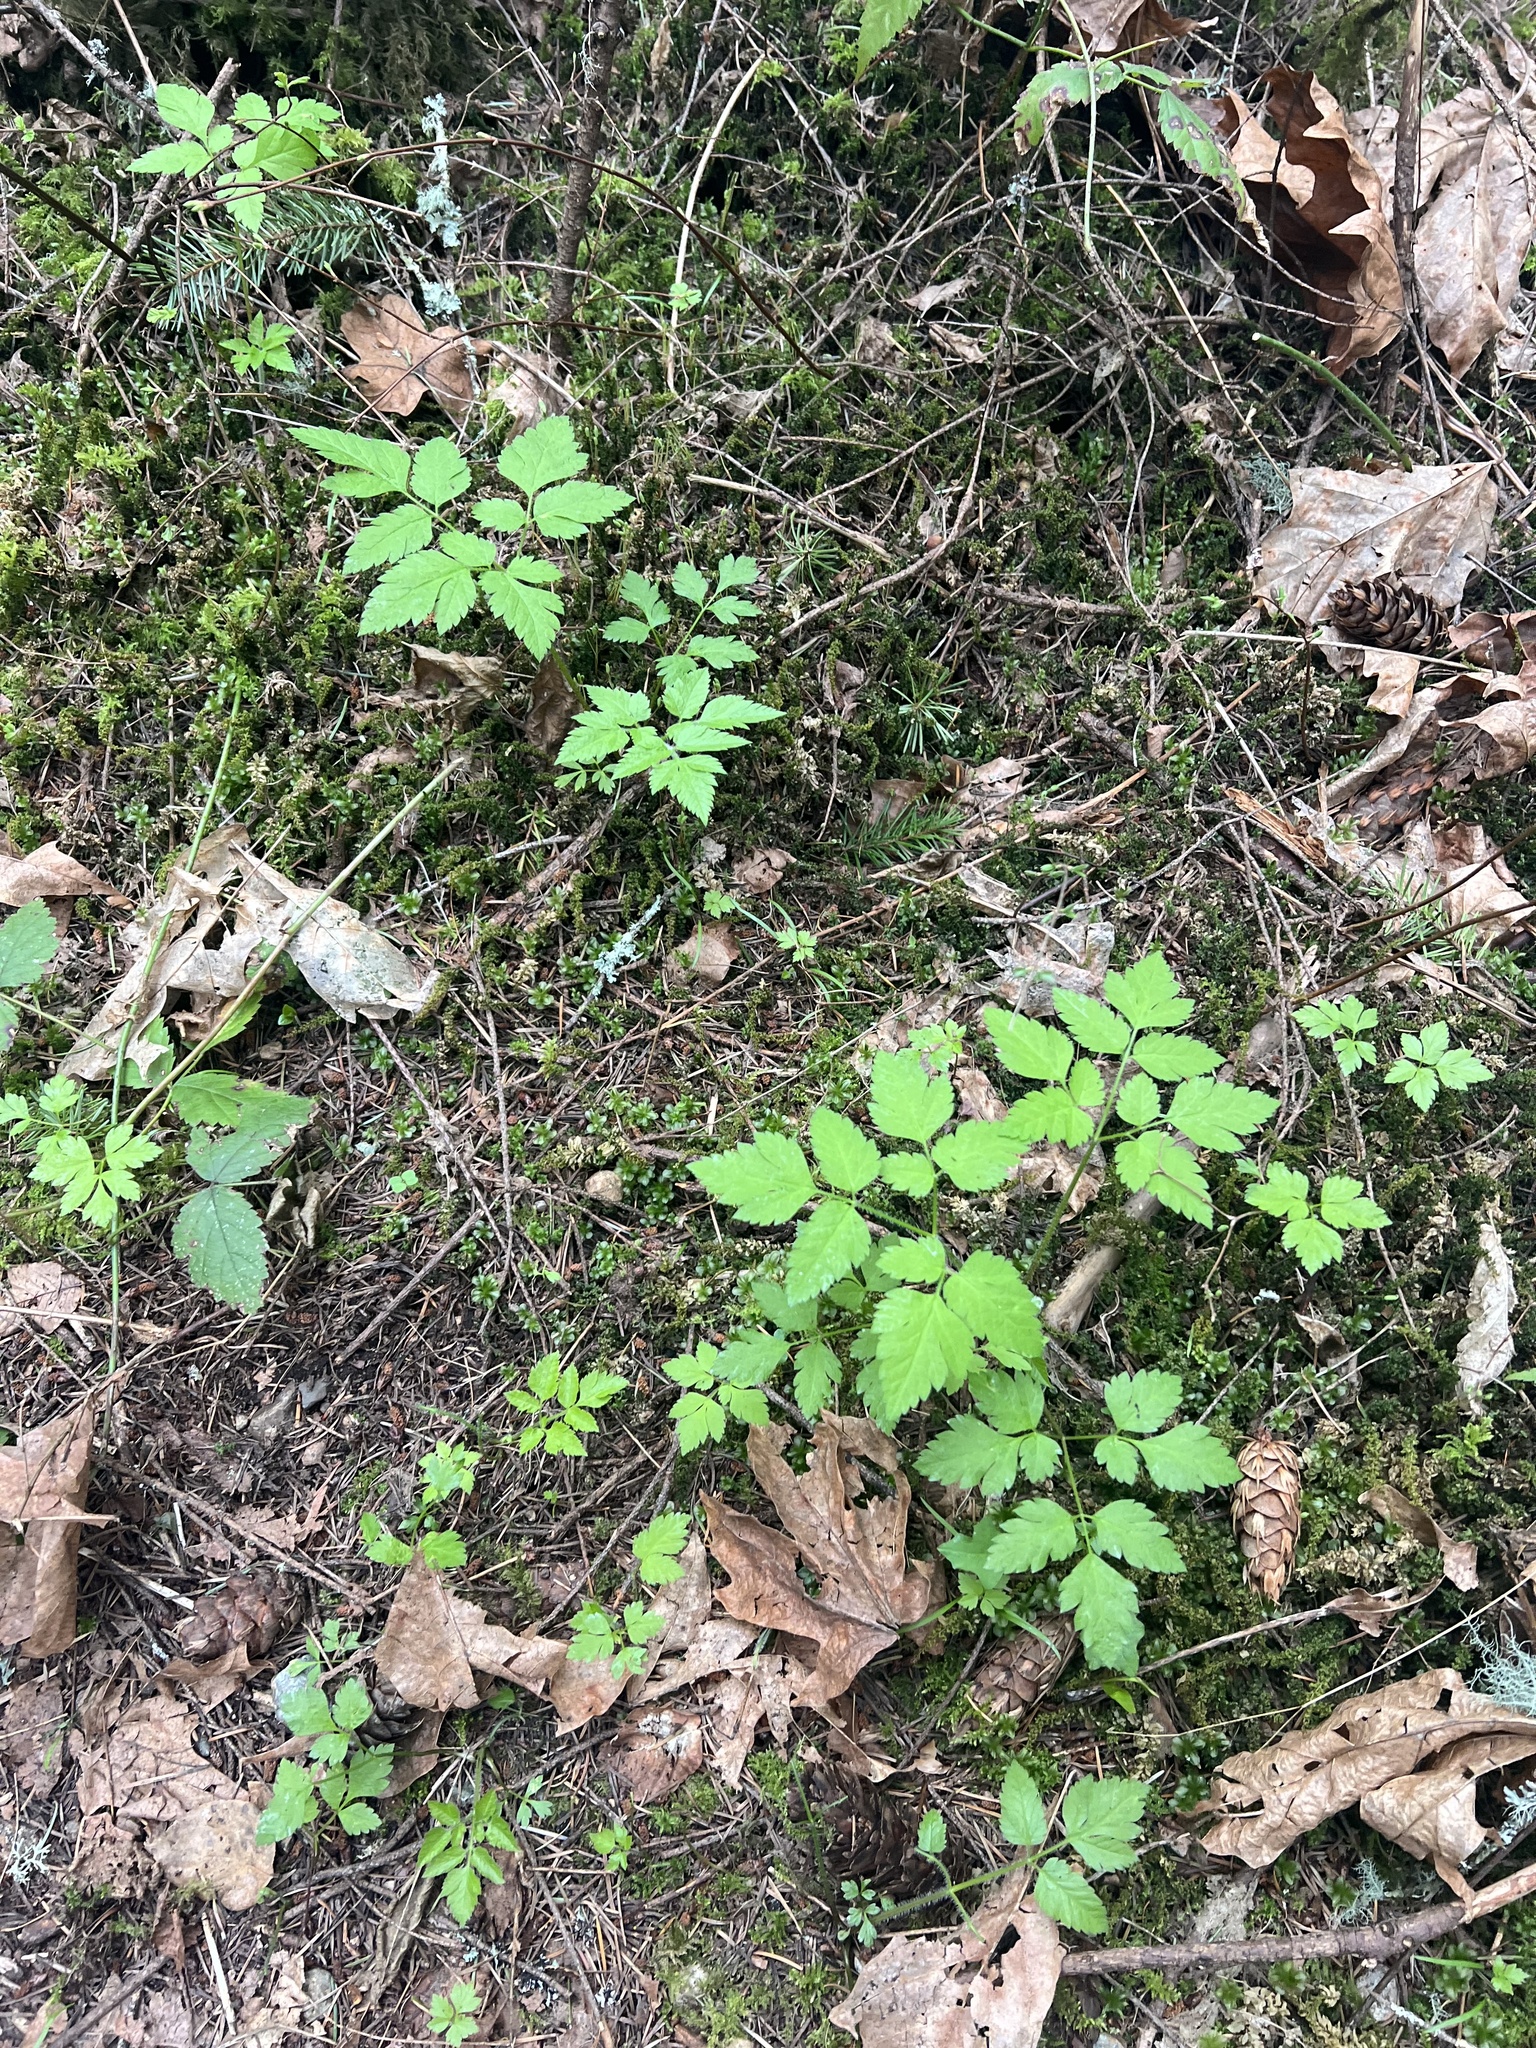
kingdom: Plantae
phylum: Tracheophyta
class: Magnoliopsida
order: Apiales
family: Apiaceae
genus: Osmorhiza
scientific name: Osmorhiza berteroi
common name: Mountain sweet cicely
